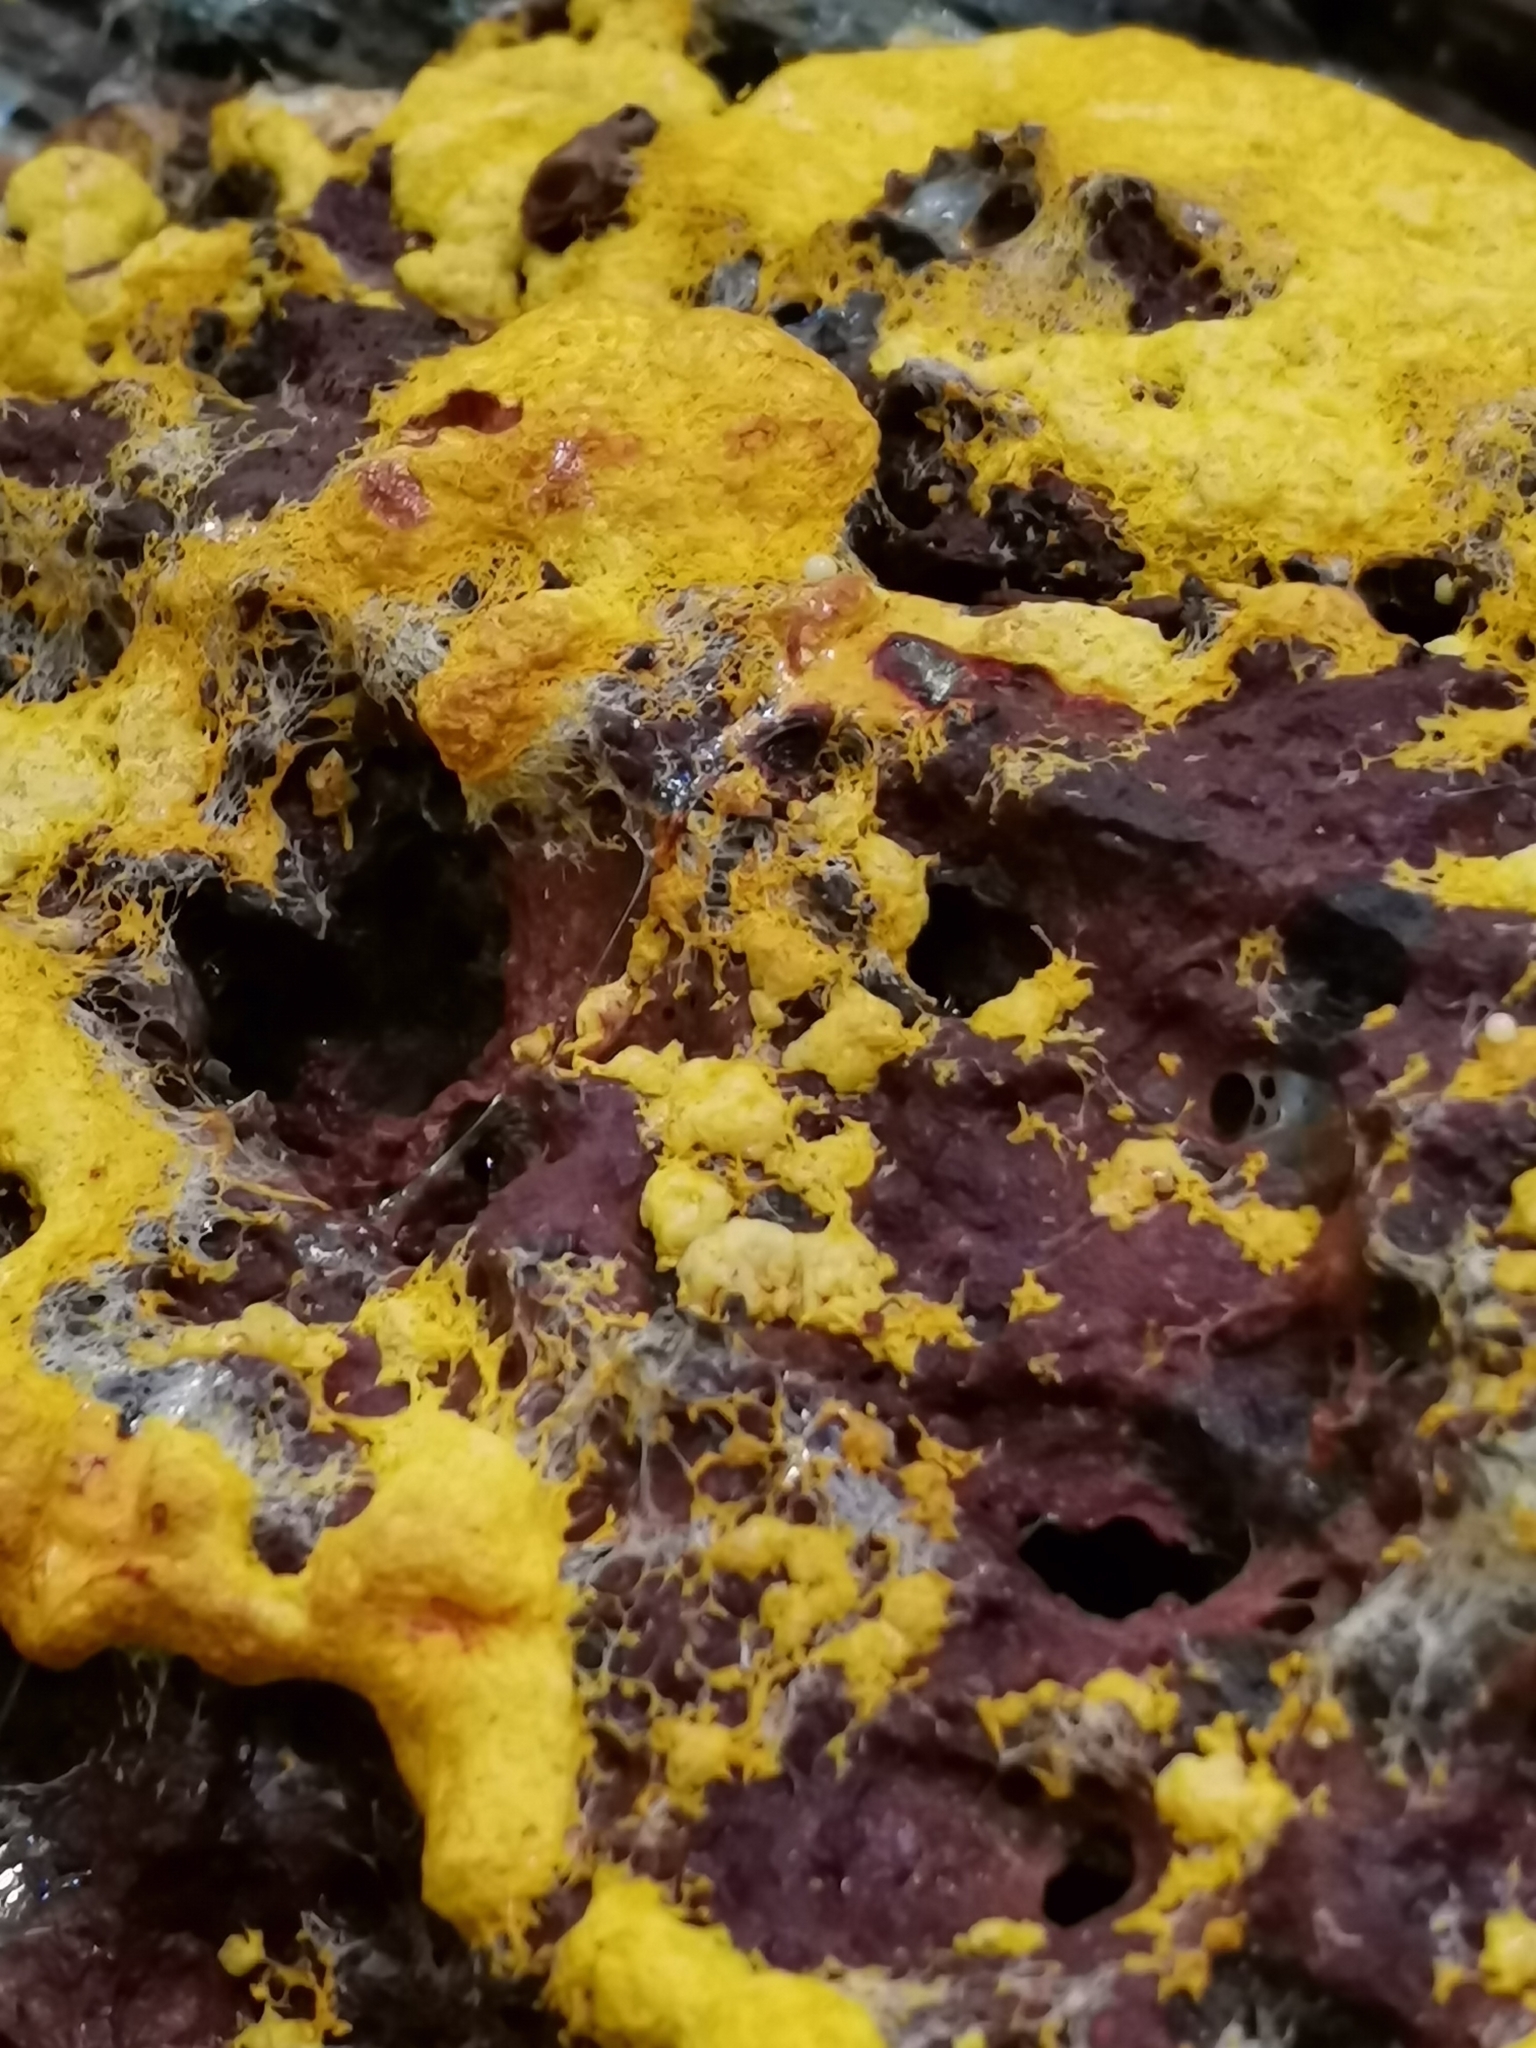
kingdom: Protozoa
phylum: Mycetozoa
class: Myxomycetes
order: Physarales
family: Physaraceae
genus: Fuligo
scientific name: Fuligo septica
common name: Dog vomit slime mold
